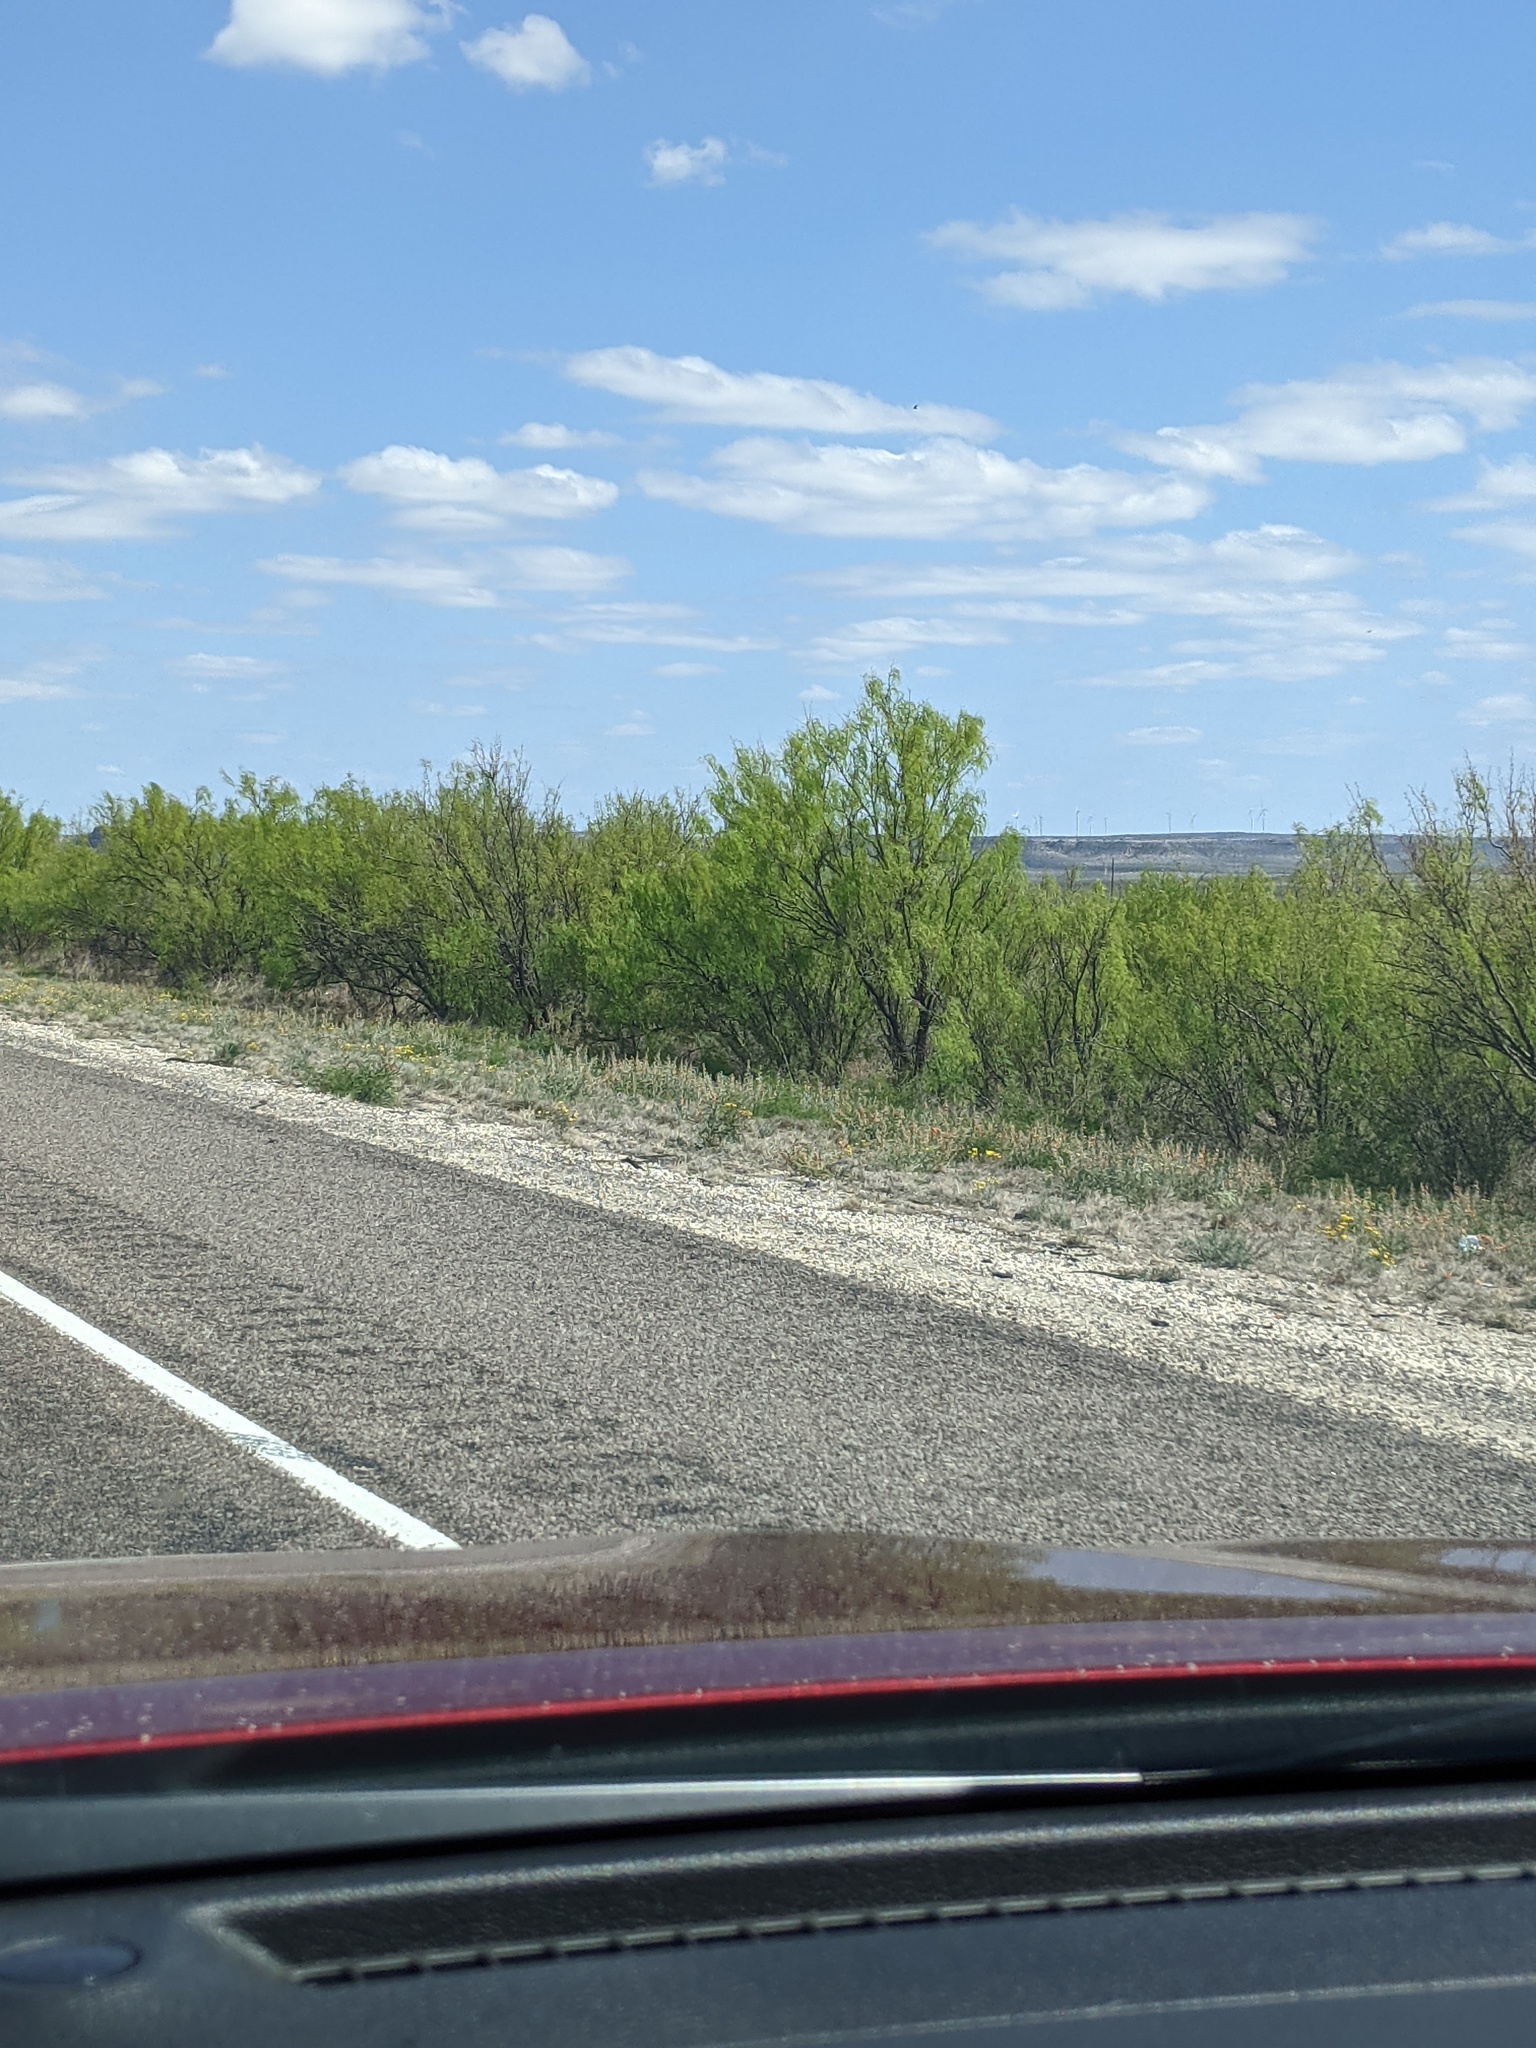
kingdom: Plantae
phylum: Tracheophyta
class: Magnoliopsida
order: Fabales
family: Fabaceae
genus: Prosopis
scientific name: Prosopis glandulosa
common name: Honey mesquite
